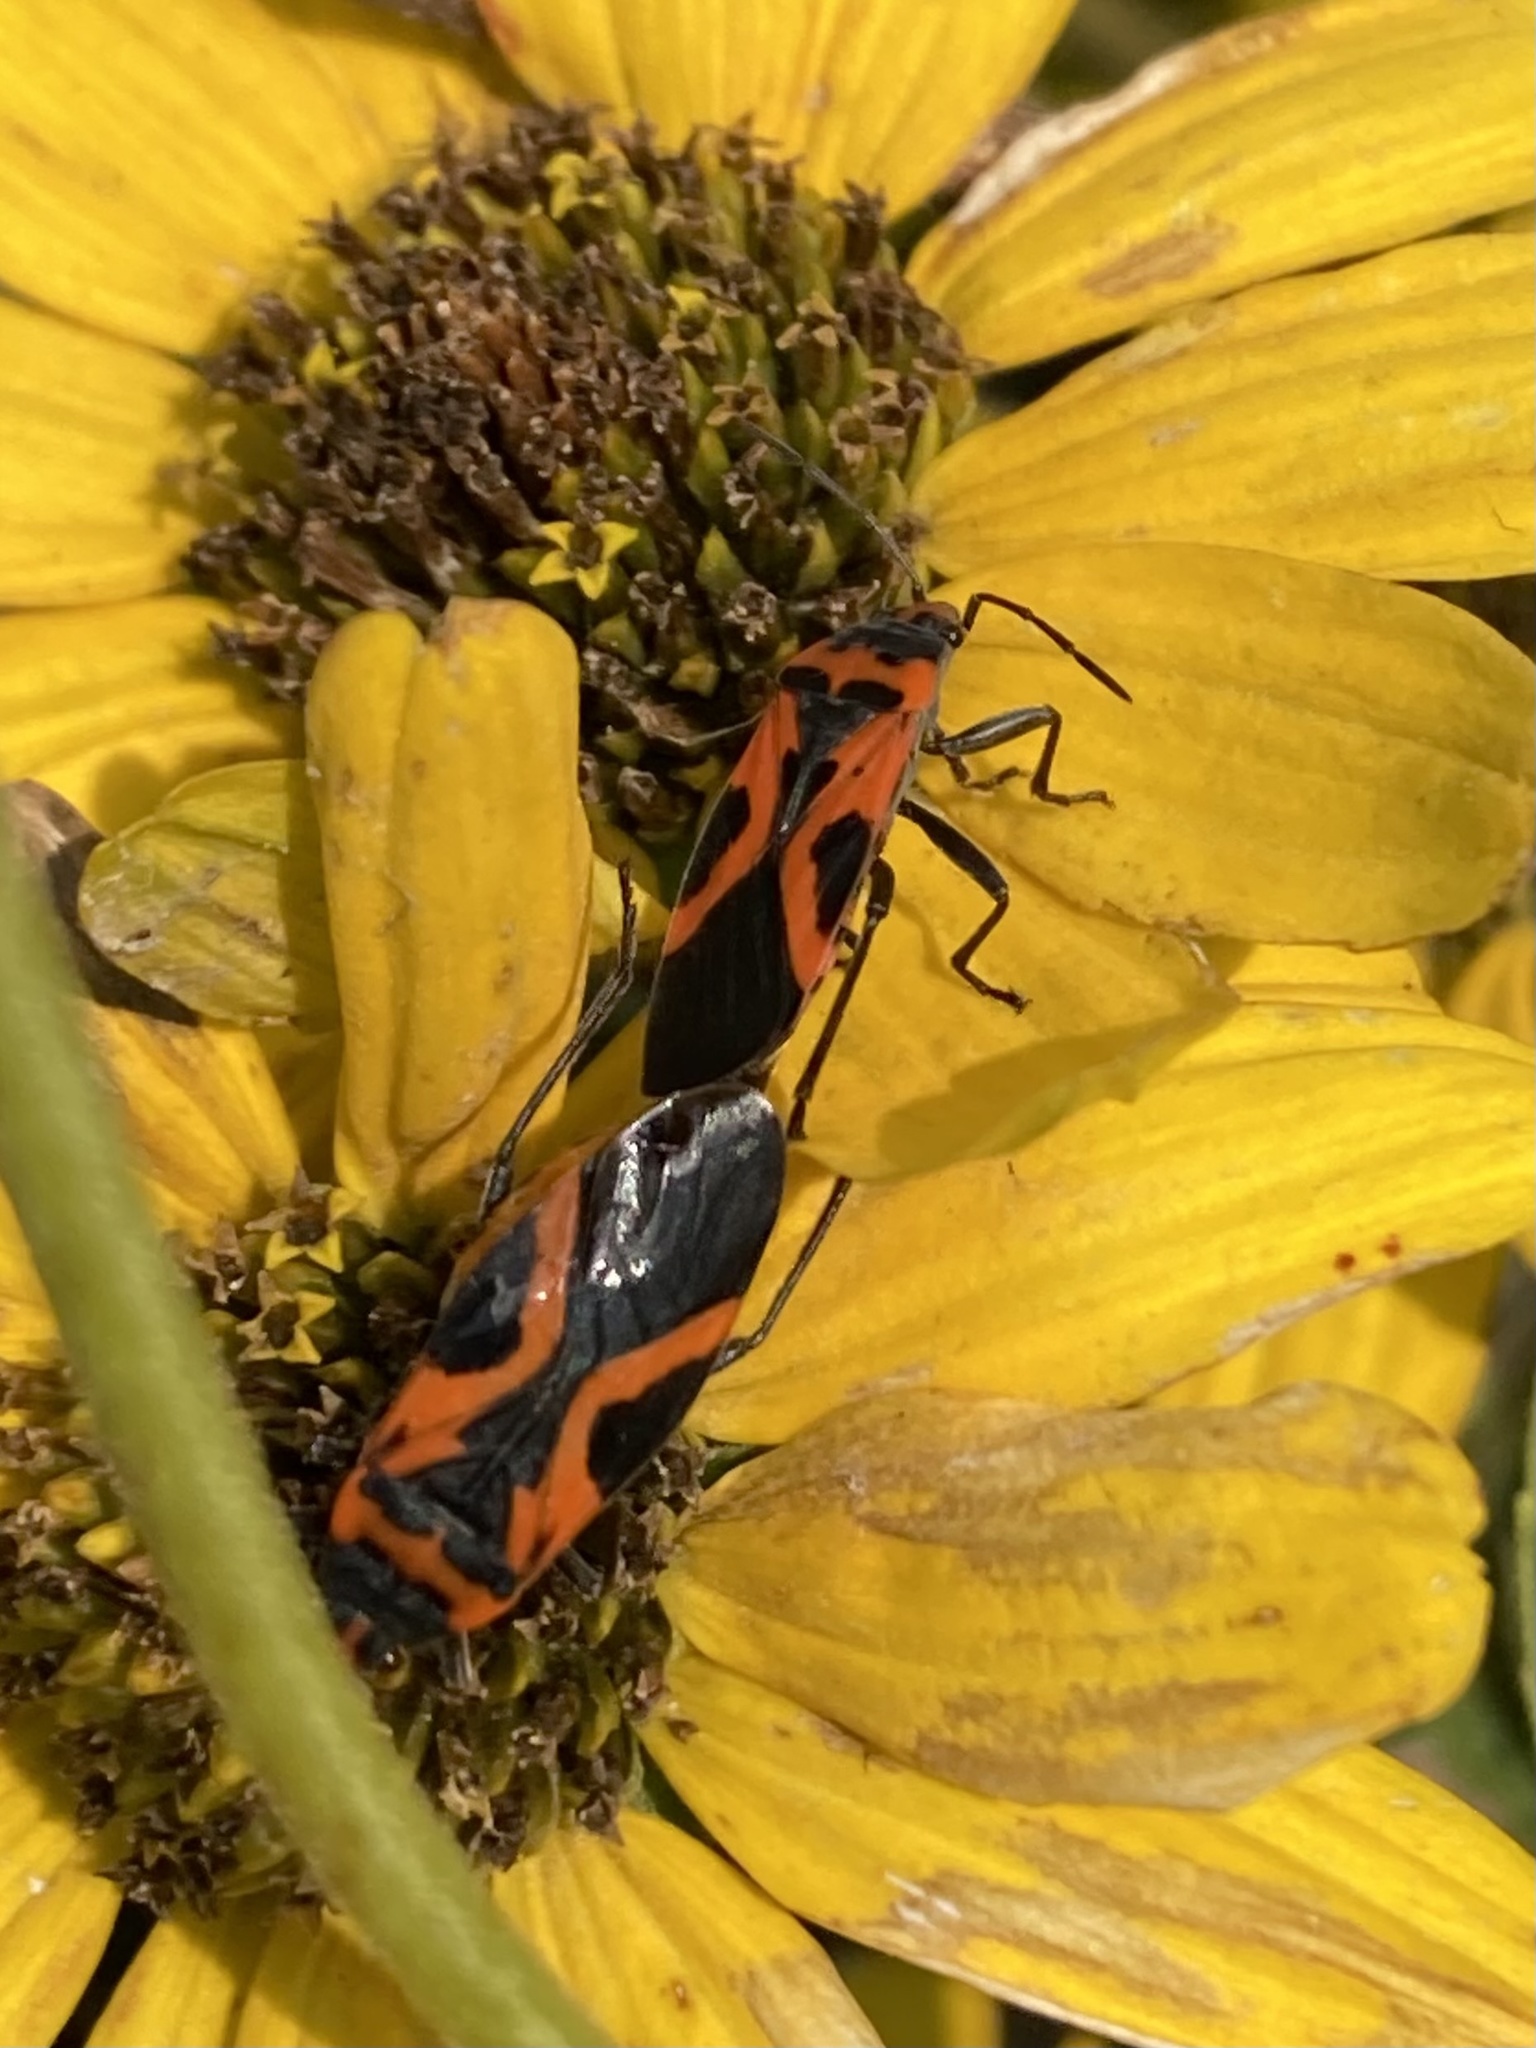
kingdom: Animalia
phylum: Arthropoda
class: Insecta
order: Hemiptera
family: Lygaeidae
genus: Lygaeus
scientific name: Lygaeus turcicus
